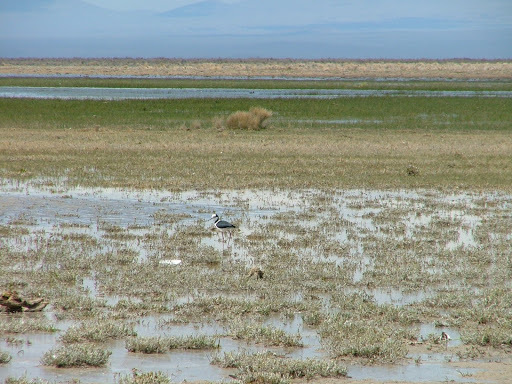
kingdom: Animalia
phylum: Chordata
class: Aves
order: Charadriiformes
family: Recurvirostridae
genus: Himantopus
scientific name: Himantopus mexicanus
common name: Black-necked stilt
